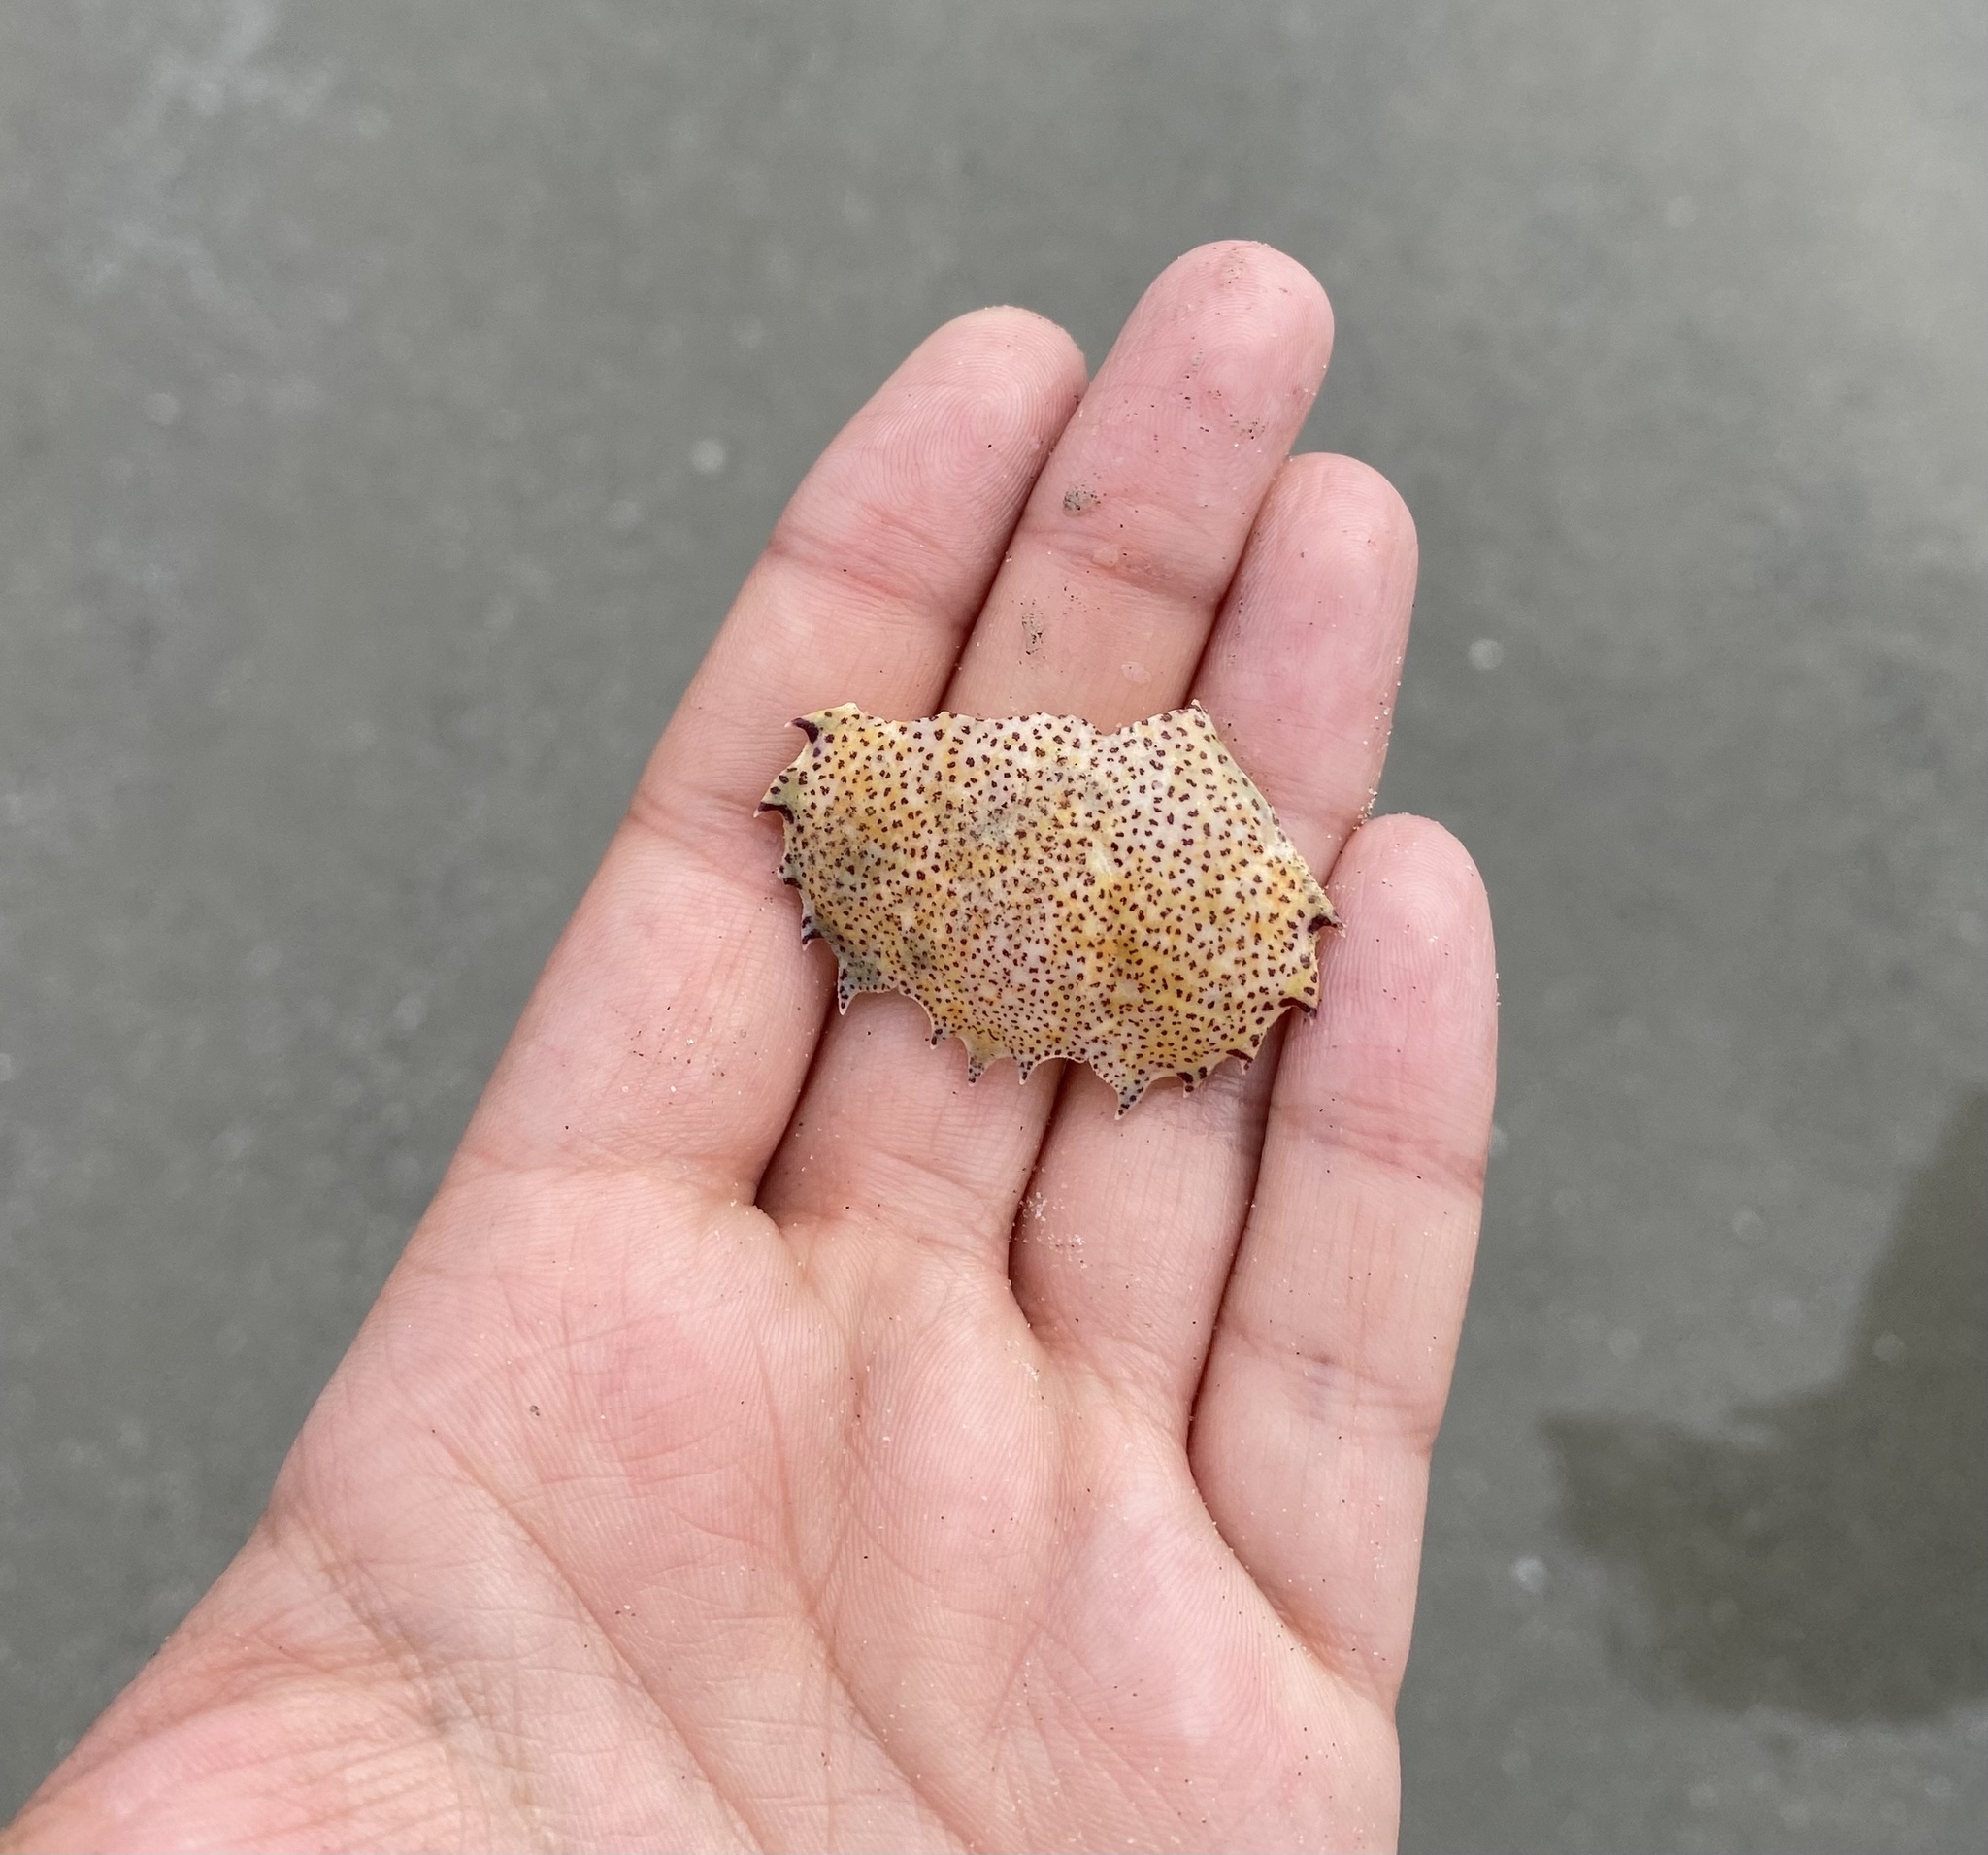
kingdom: Animalia
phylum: Arthropoda
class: Malacostraca
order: Decapoda
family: Ovalipidae
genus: Ovalipes
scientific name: Ovalipes ocellatus
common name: Lady crab
